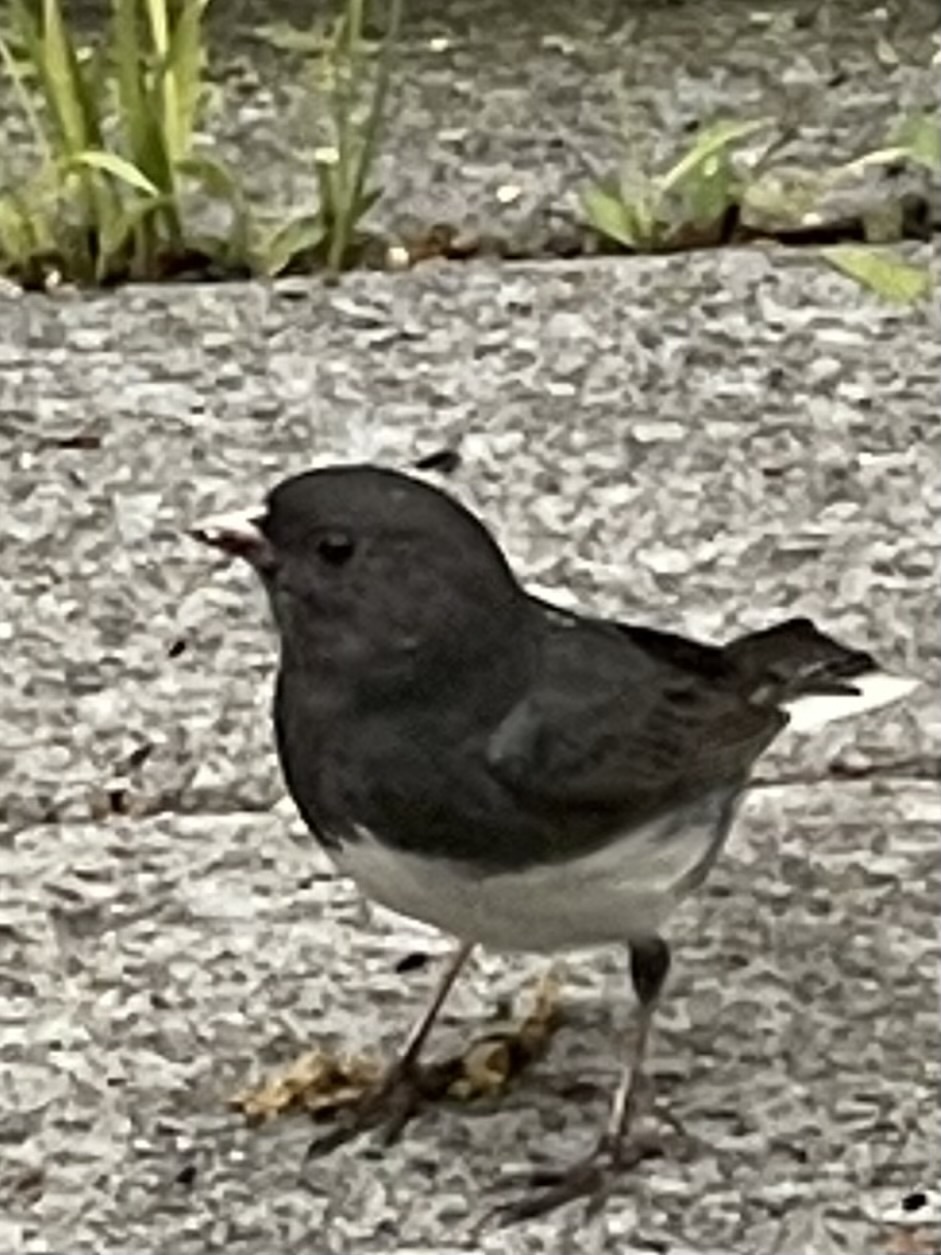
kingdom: Animalia
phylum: Chordata
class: Aves
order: Passeriformes
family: Passerellidae
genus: Junco
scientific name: Junco hyemalis
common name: Dark-eyed junco
